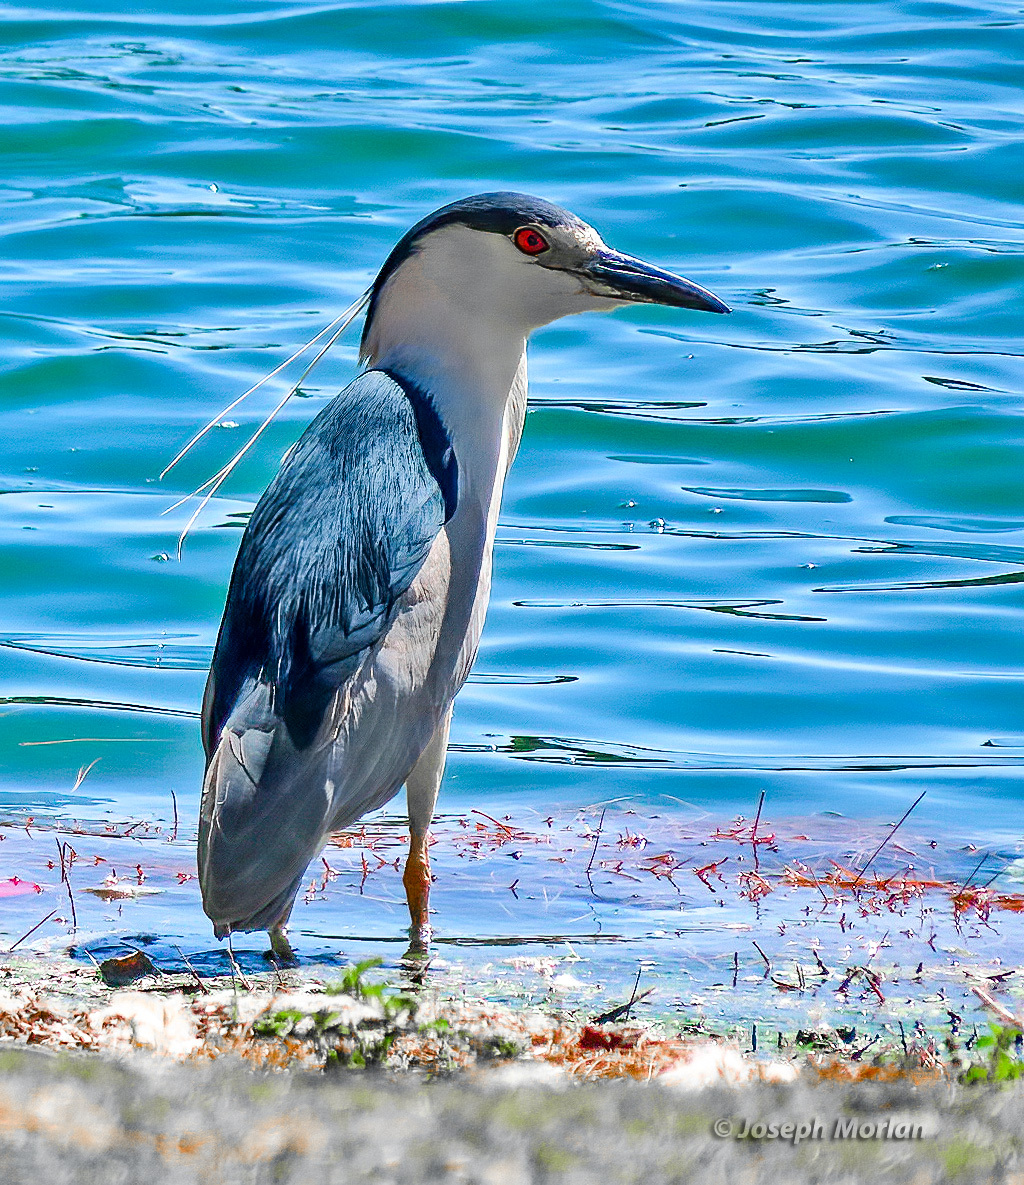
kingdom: Animalia
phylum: Chordata
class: Aves
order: Pelecaniformes
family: Ardeidae
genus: Nycticorax
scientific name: Nycticorax nycticorax
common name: Black-crowned night heron
